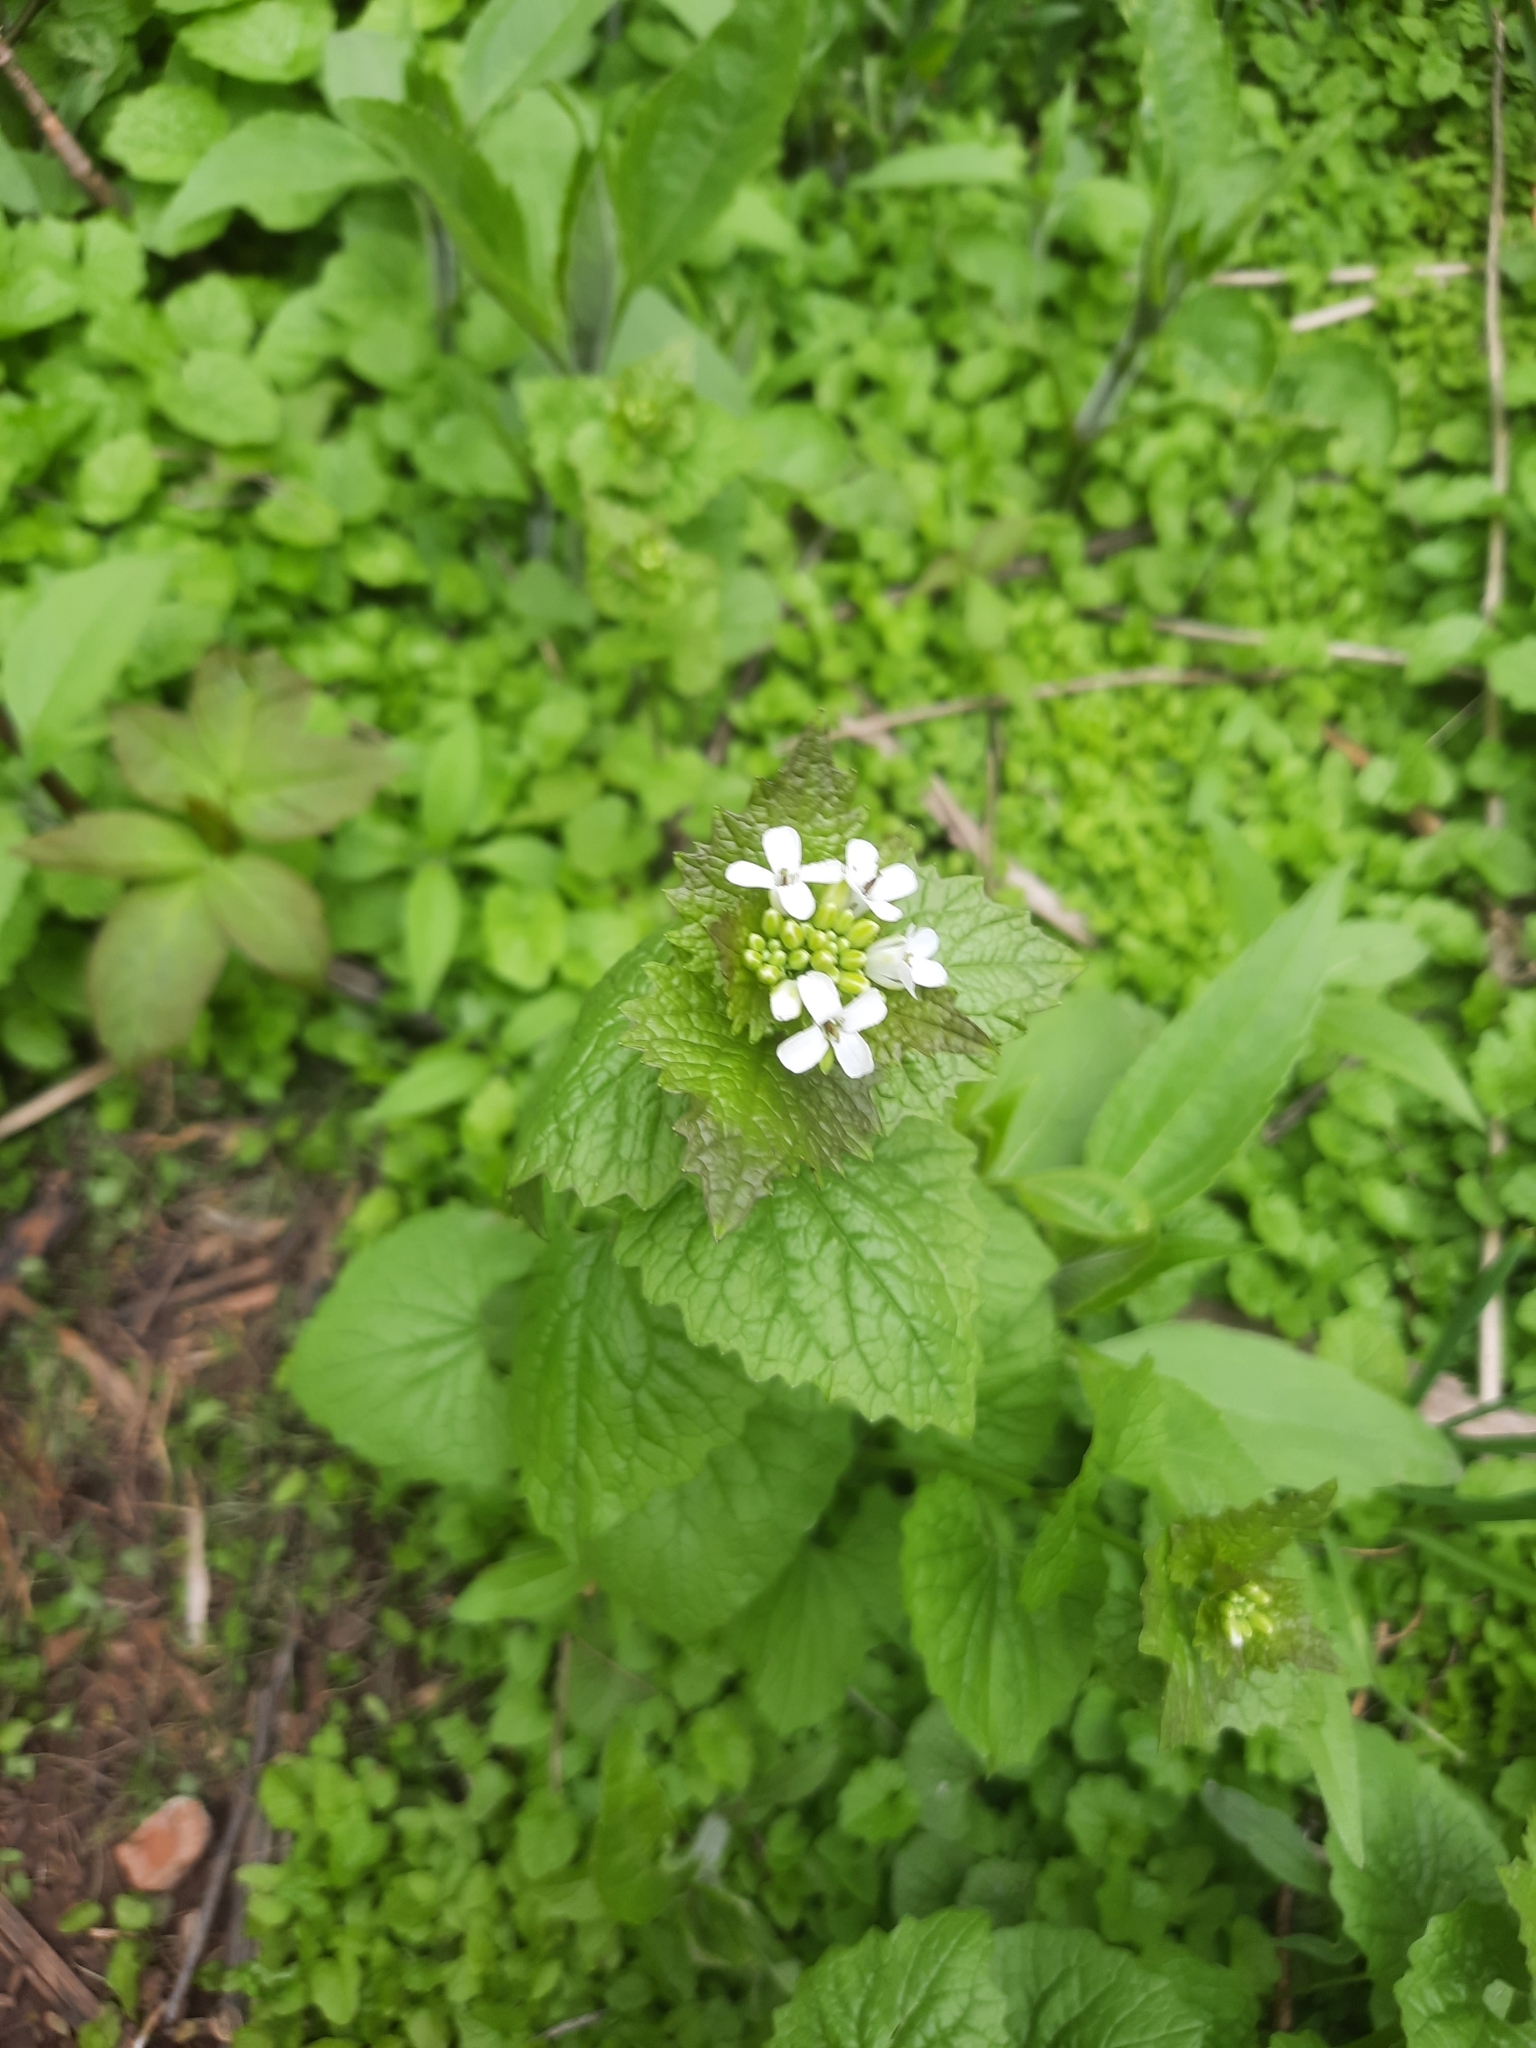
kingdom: Plantae
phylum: Tracheophyta
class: Magnoliopsida
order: Brassicales
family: Brassicaceae
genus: Alliaria
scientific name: Alliaria petiolata
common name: Garlic mustard
